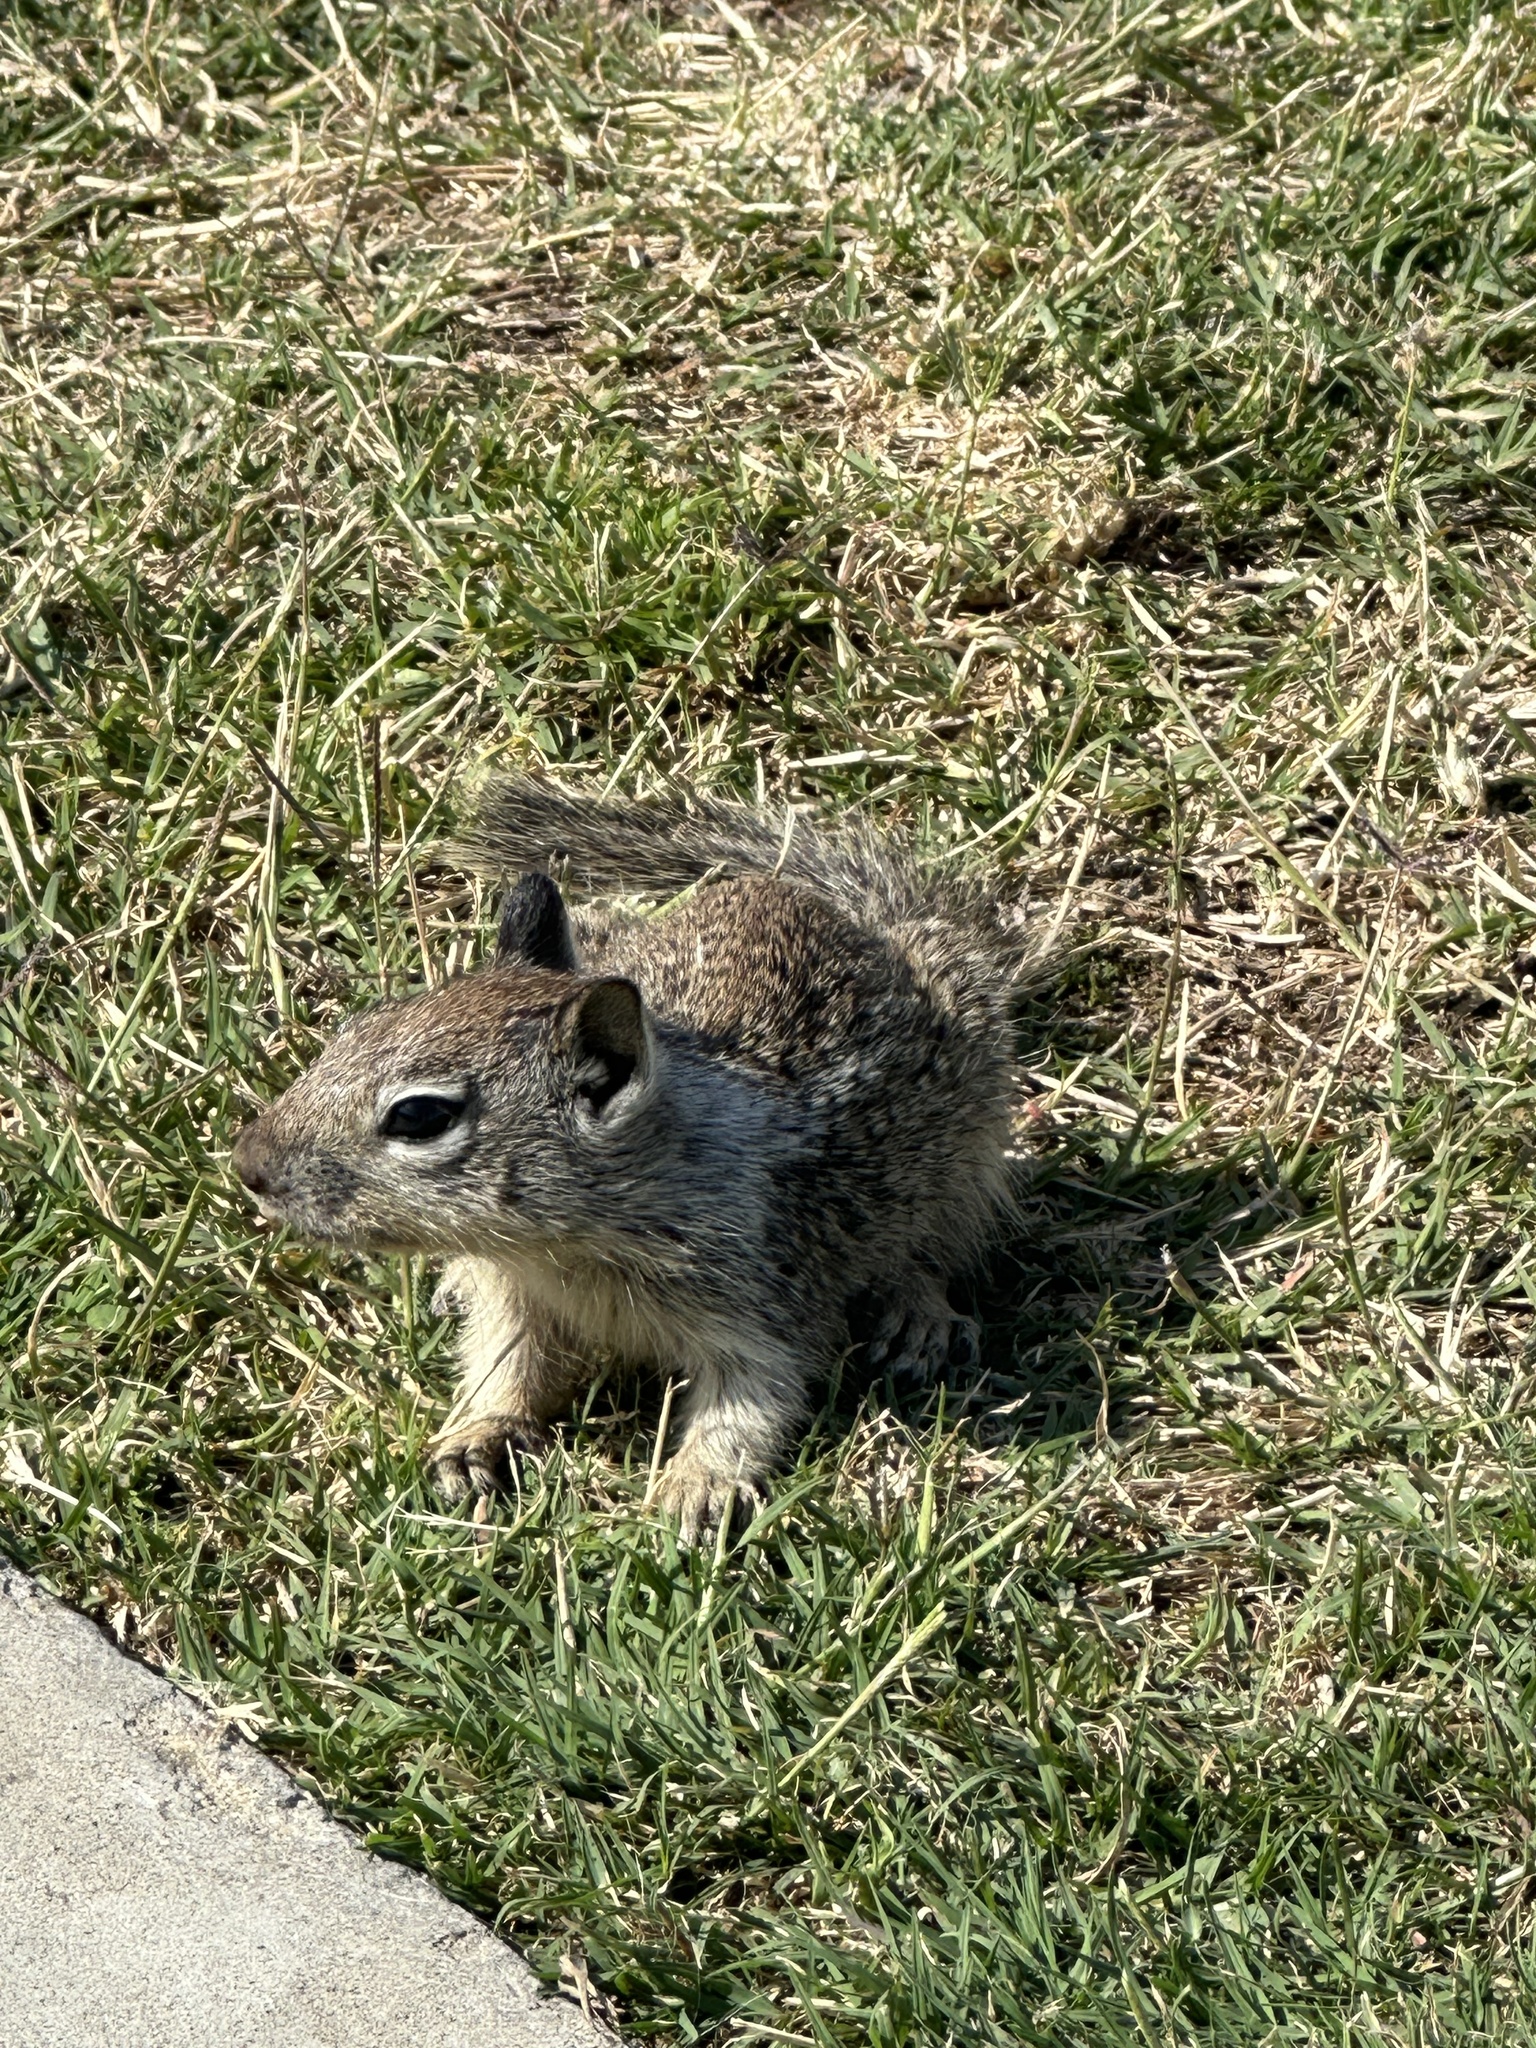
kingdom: Animalia
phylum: Chordata
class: Mammalia
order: Rodentia
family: Sciuridae
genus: Otospermophilus
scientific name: Otospermophilus beecheyi
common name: California ground squirrel
